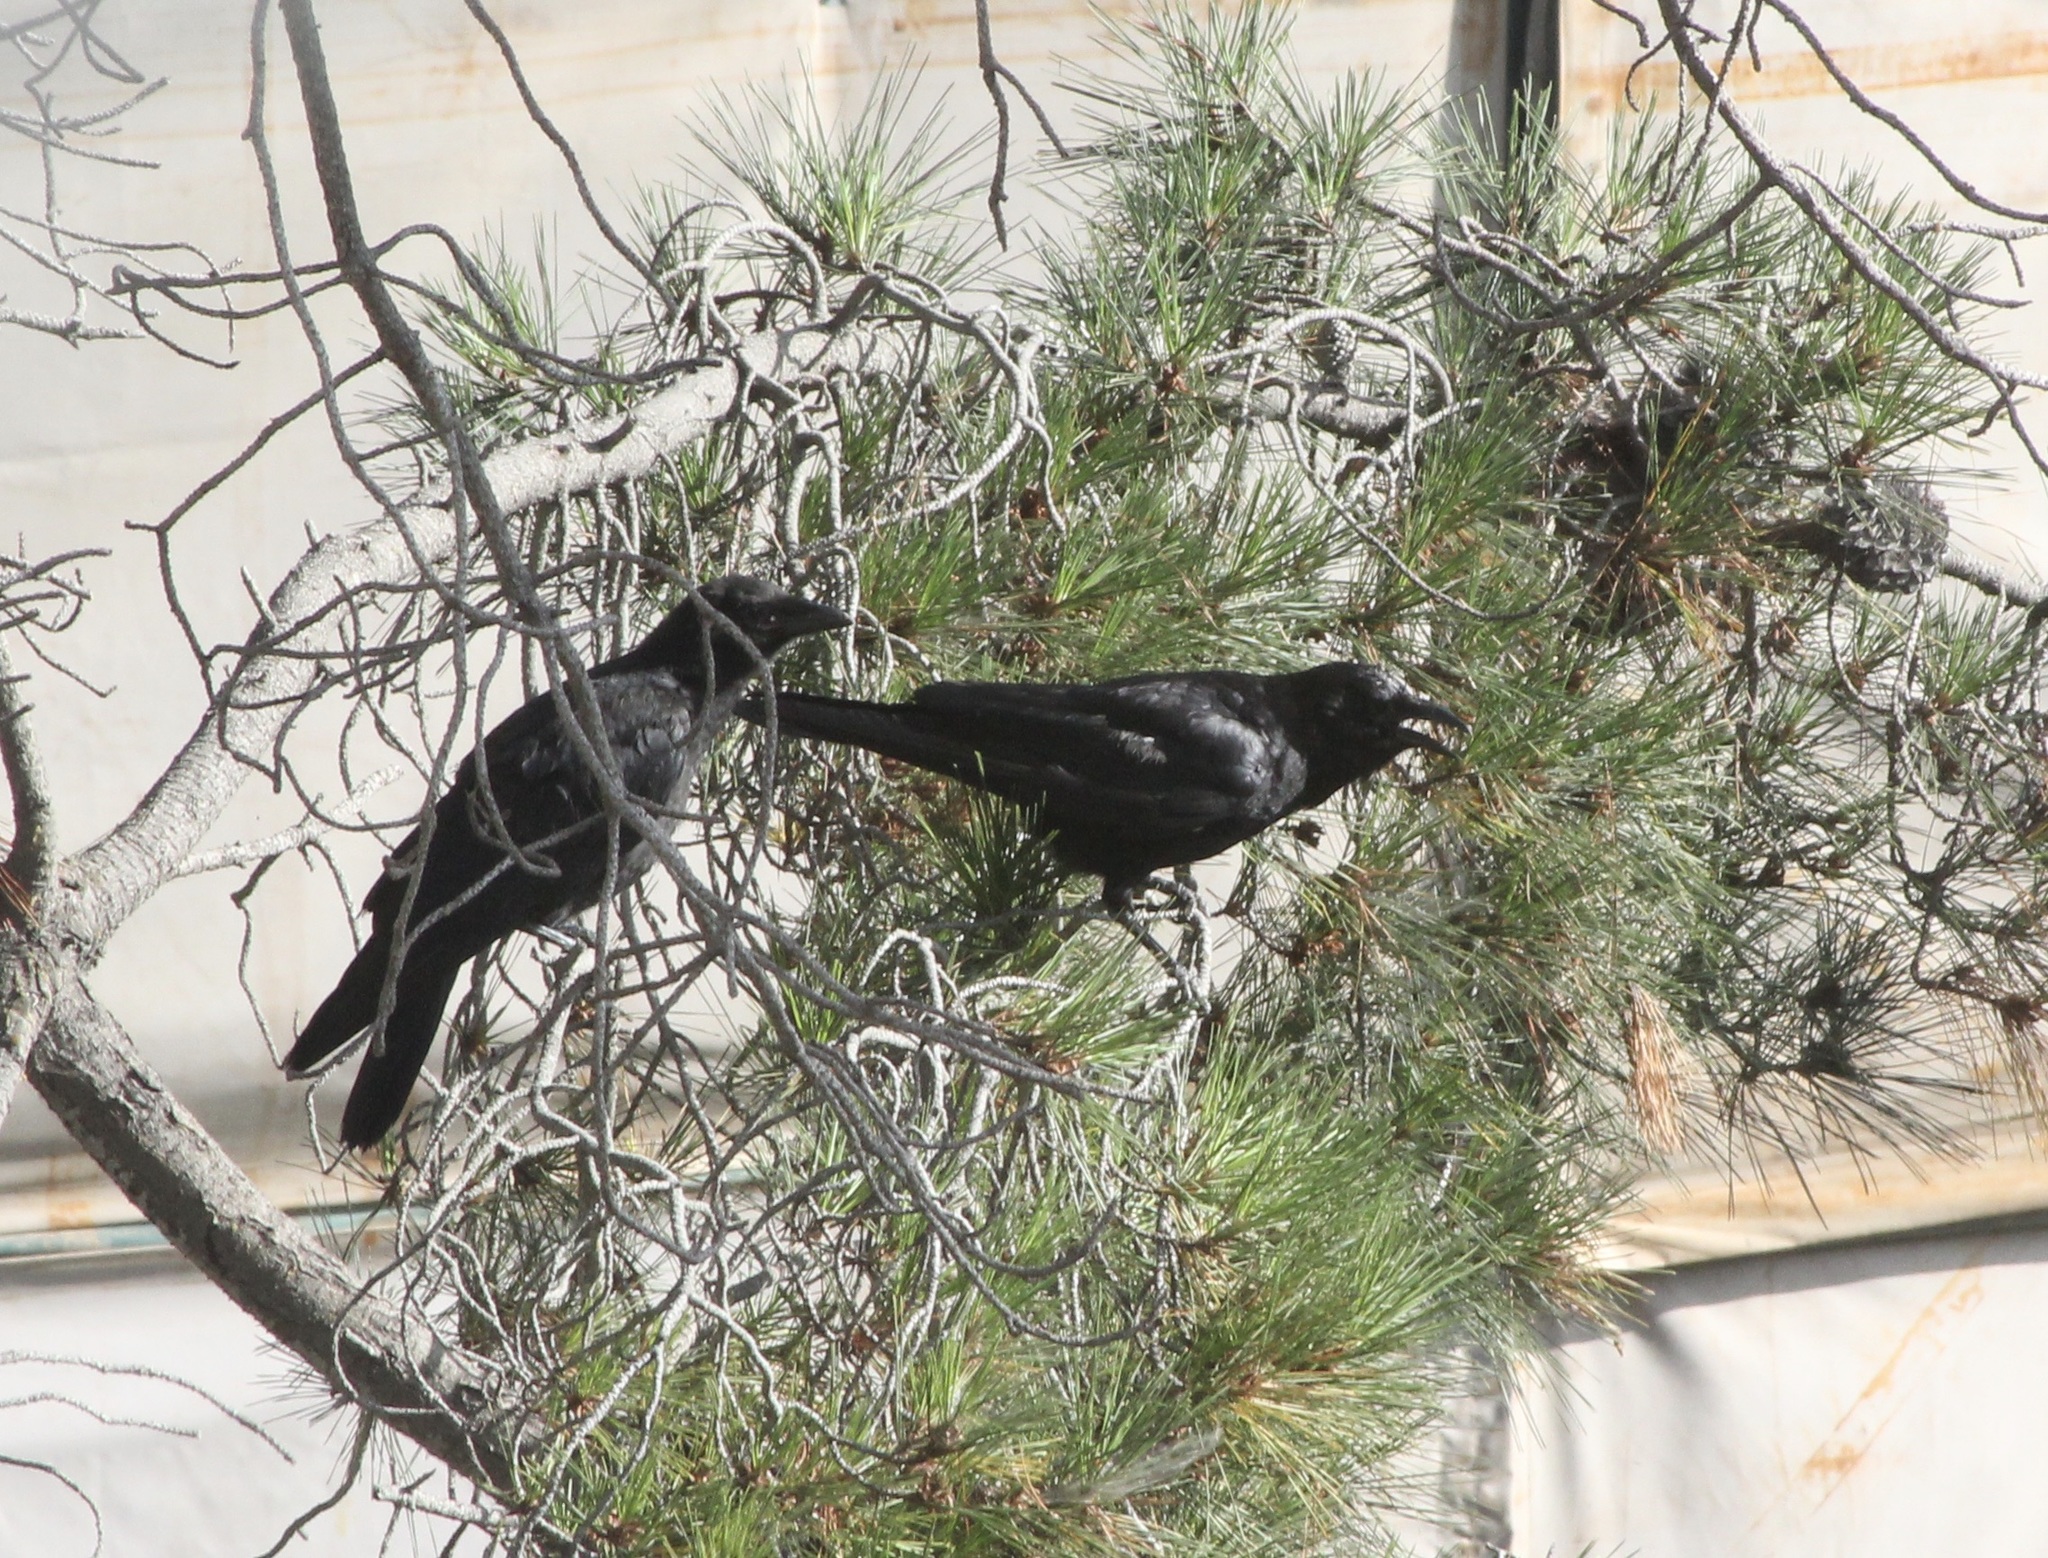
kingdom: Animalia
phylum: Chordata
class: Aves
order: Passeriformes
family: Corvidae
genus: Corvus
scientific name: Corvus brachyrhynchos
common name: American crow
